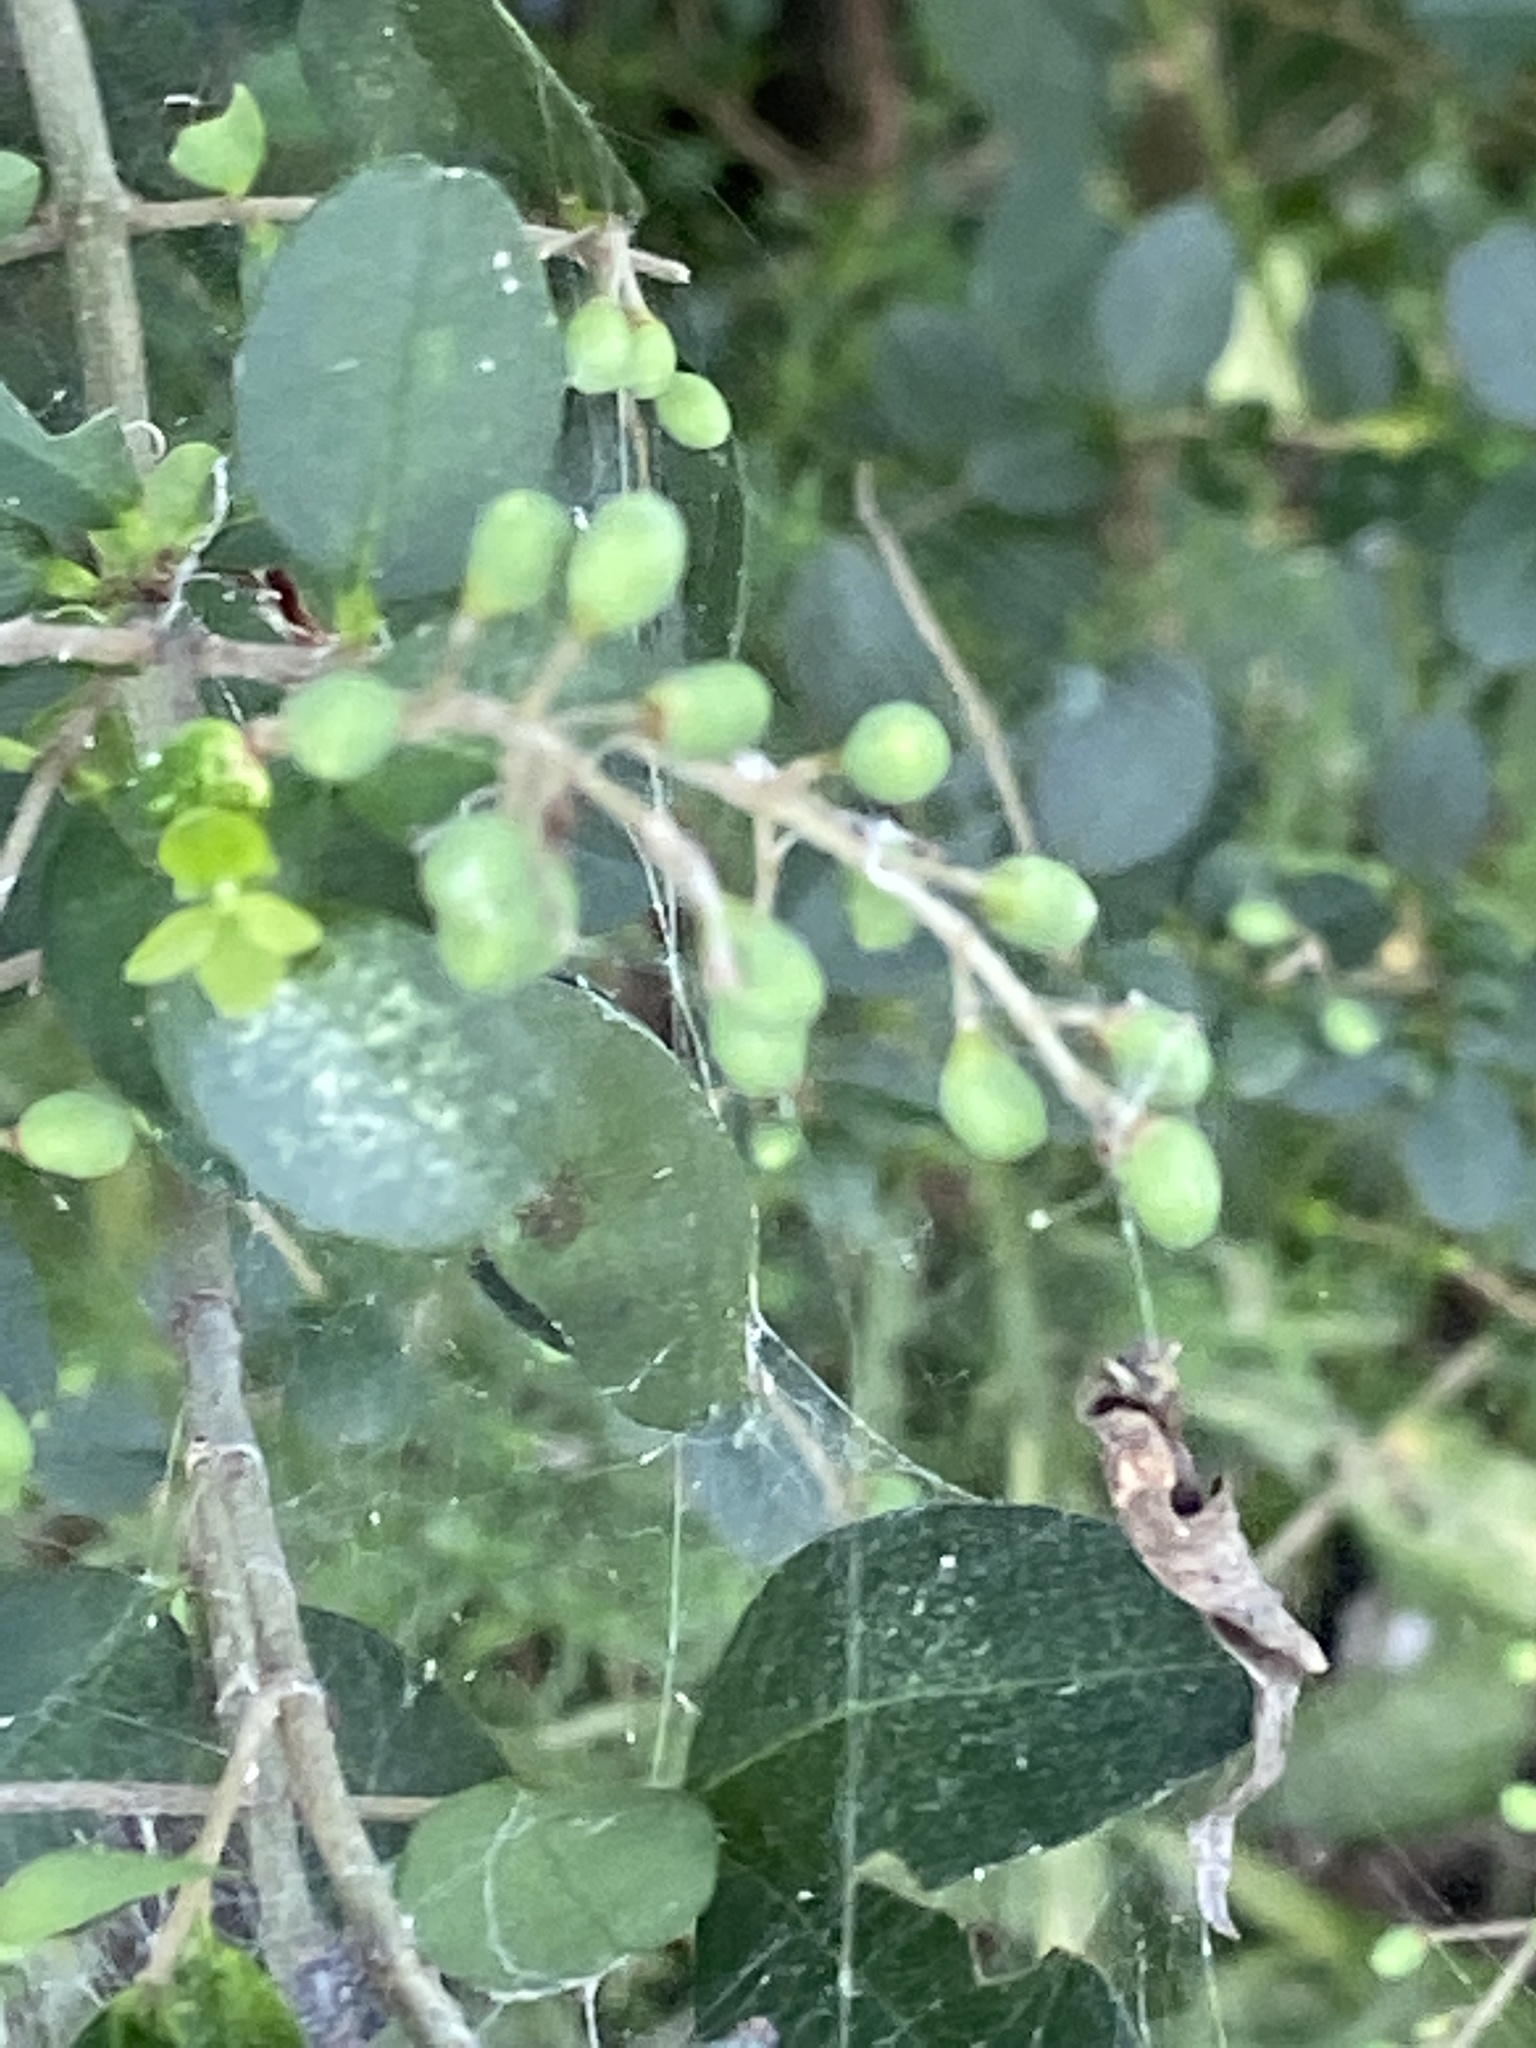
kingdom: Plantae
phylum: Tracheophyta
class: Magnoliopsida
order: Lamiales
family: Oleaceae
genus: Ligustrum
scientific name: Ligustrum sinense
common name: Chinese privet
